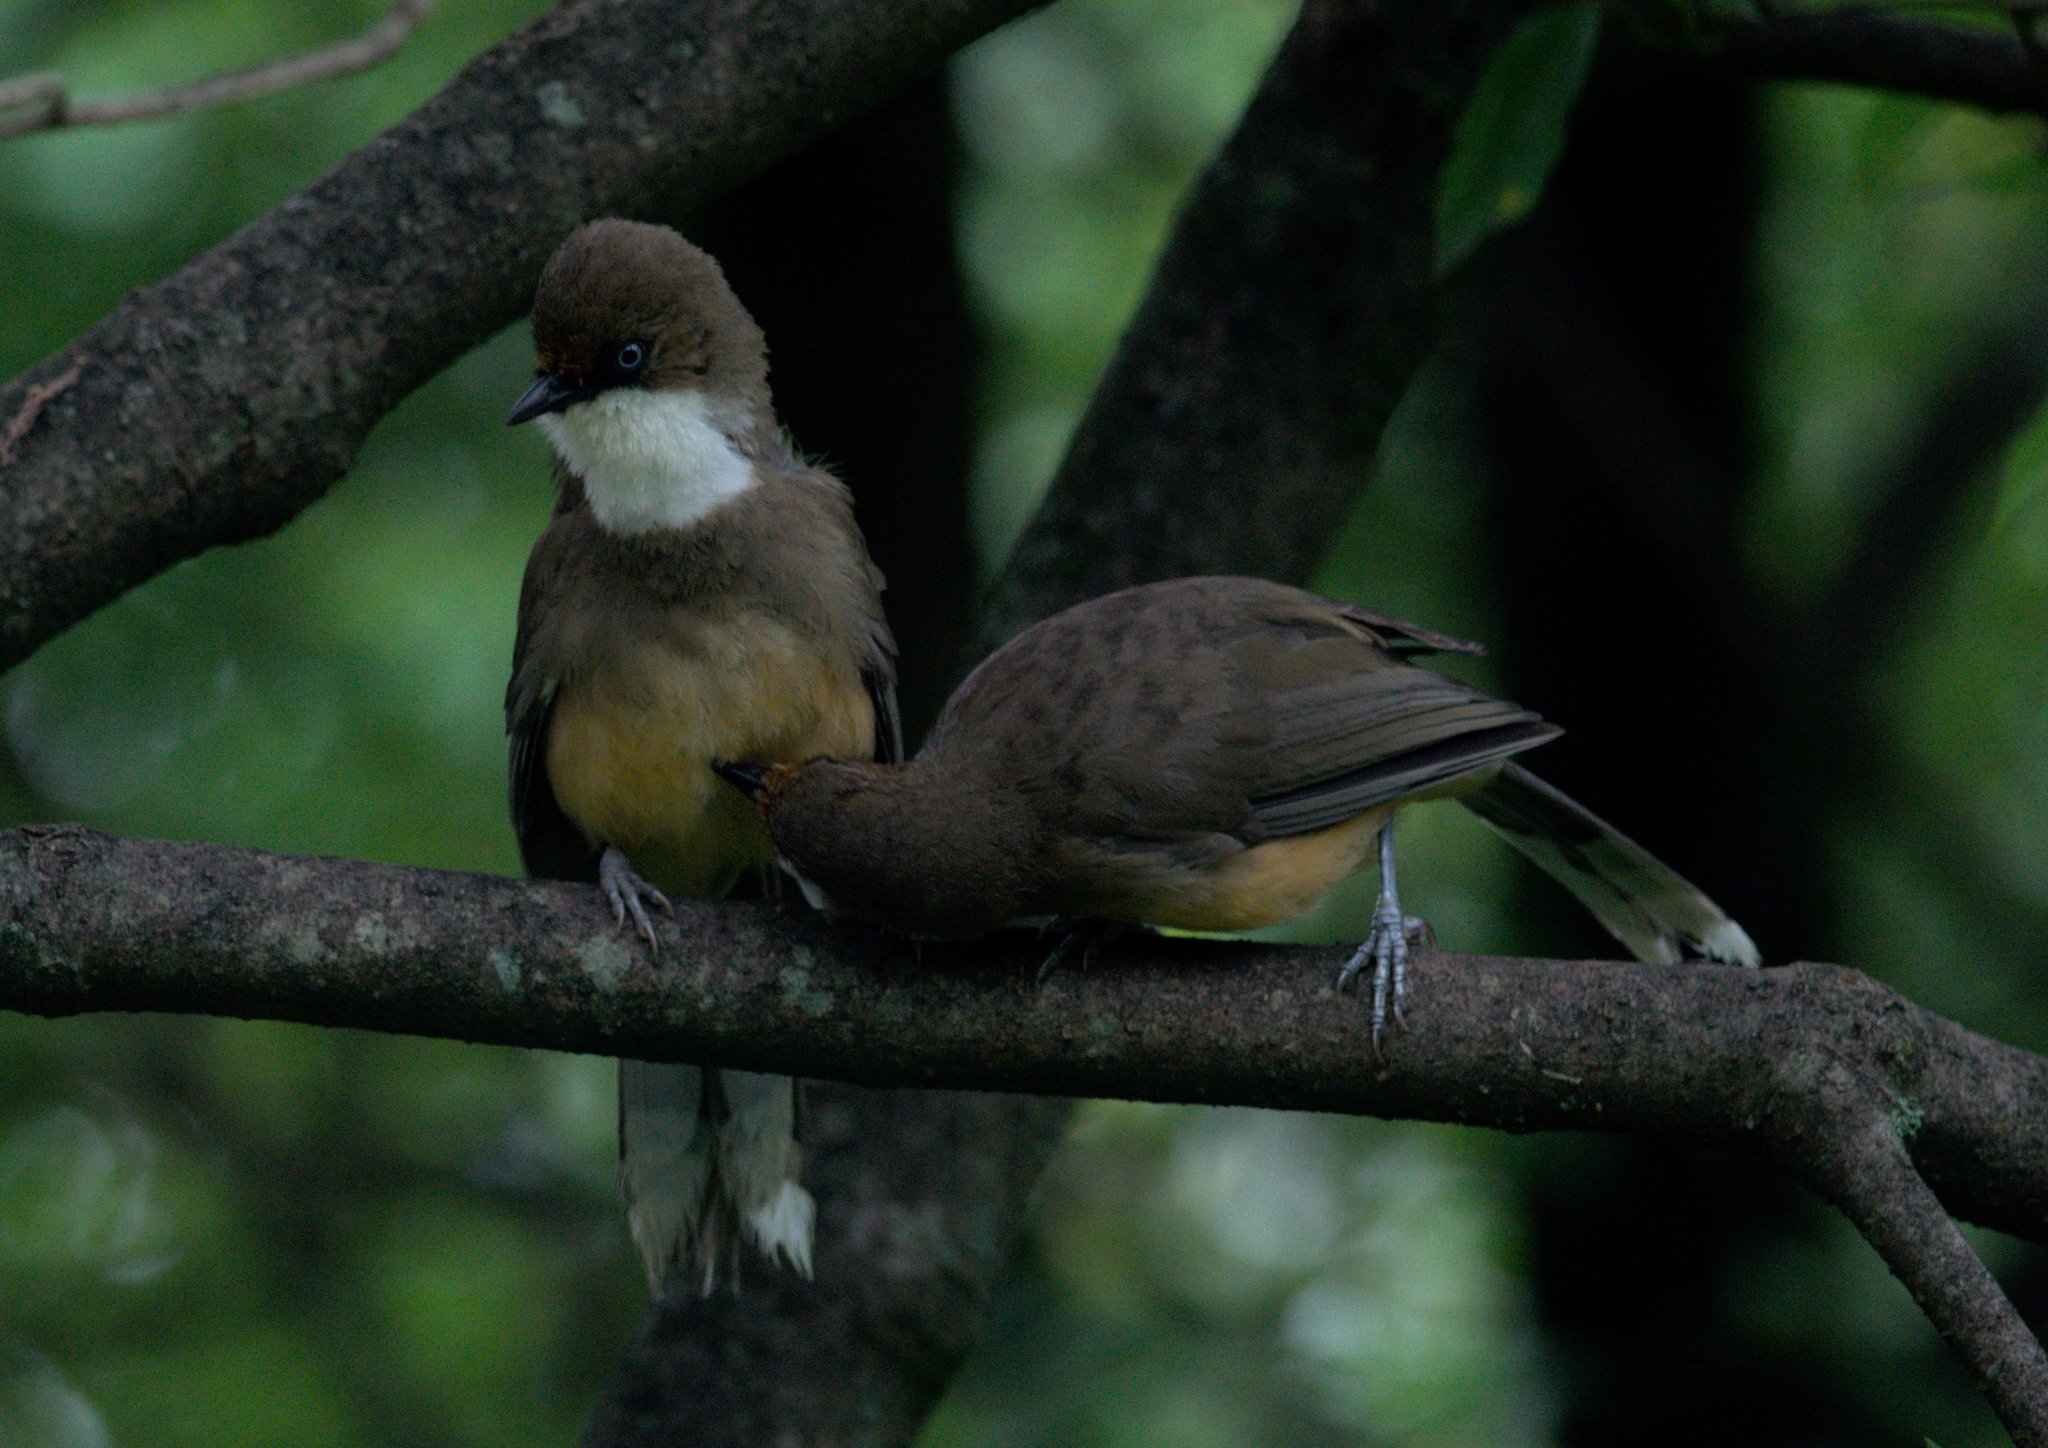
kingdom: Animalia
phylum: Chordata
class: Aves
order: Passeriformes
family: Leiothrichidae
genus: Garrulax
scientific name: Garrulax albogularis
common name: White-throated laughingthrush
